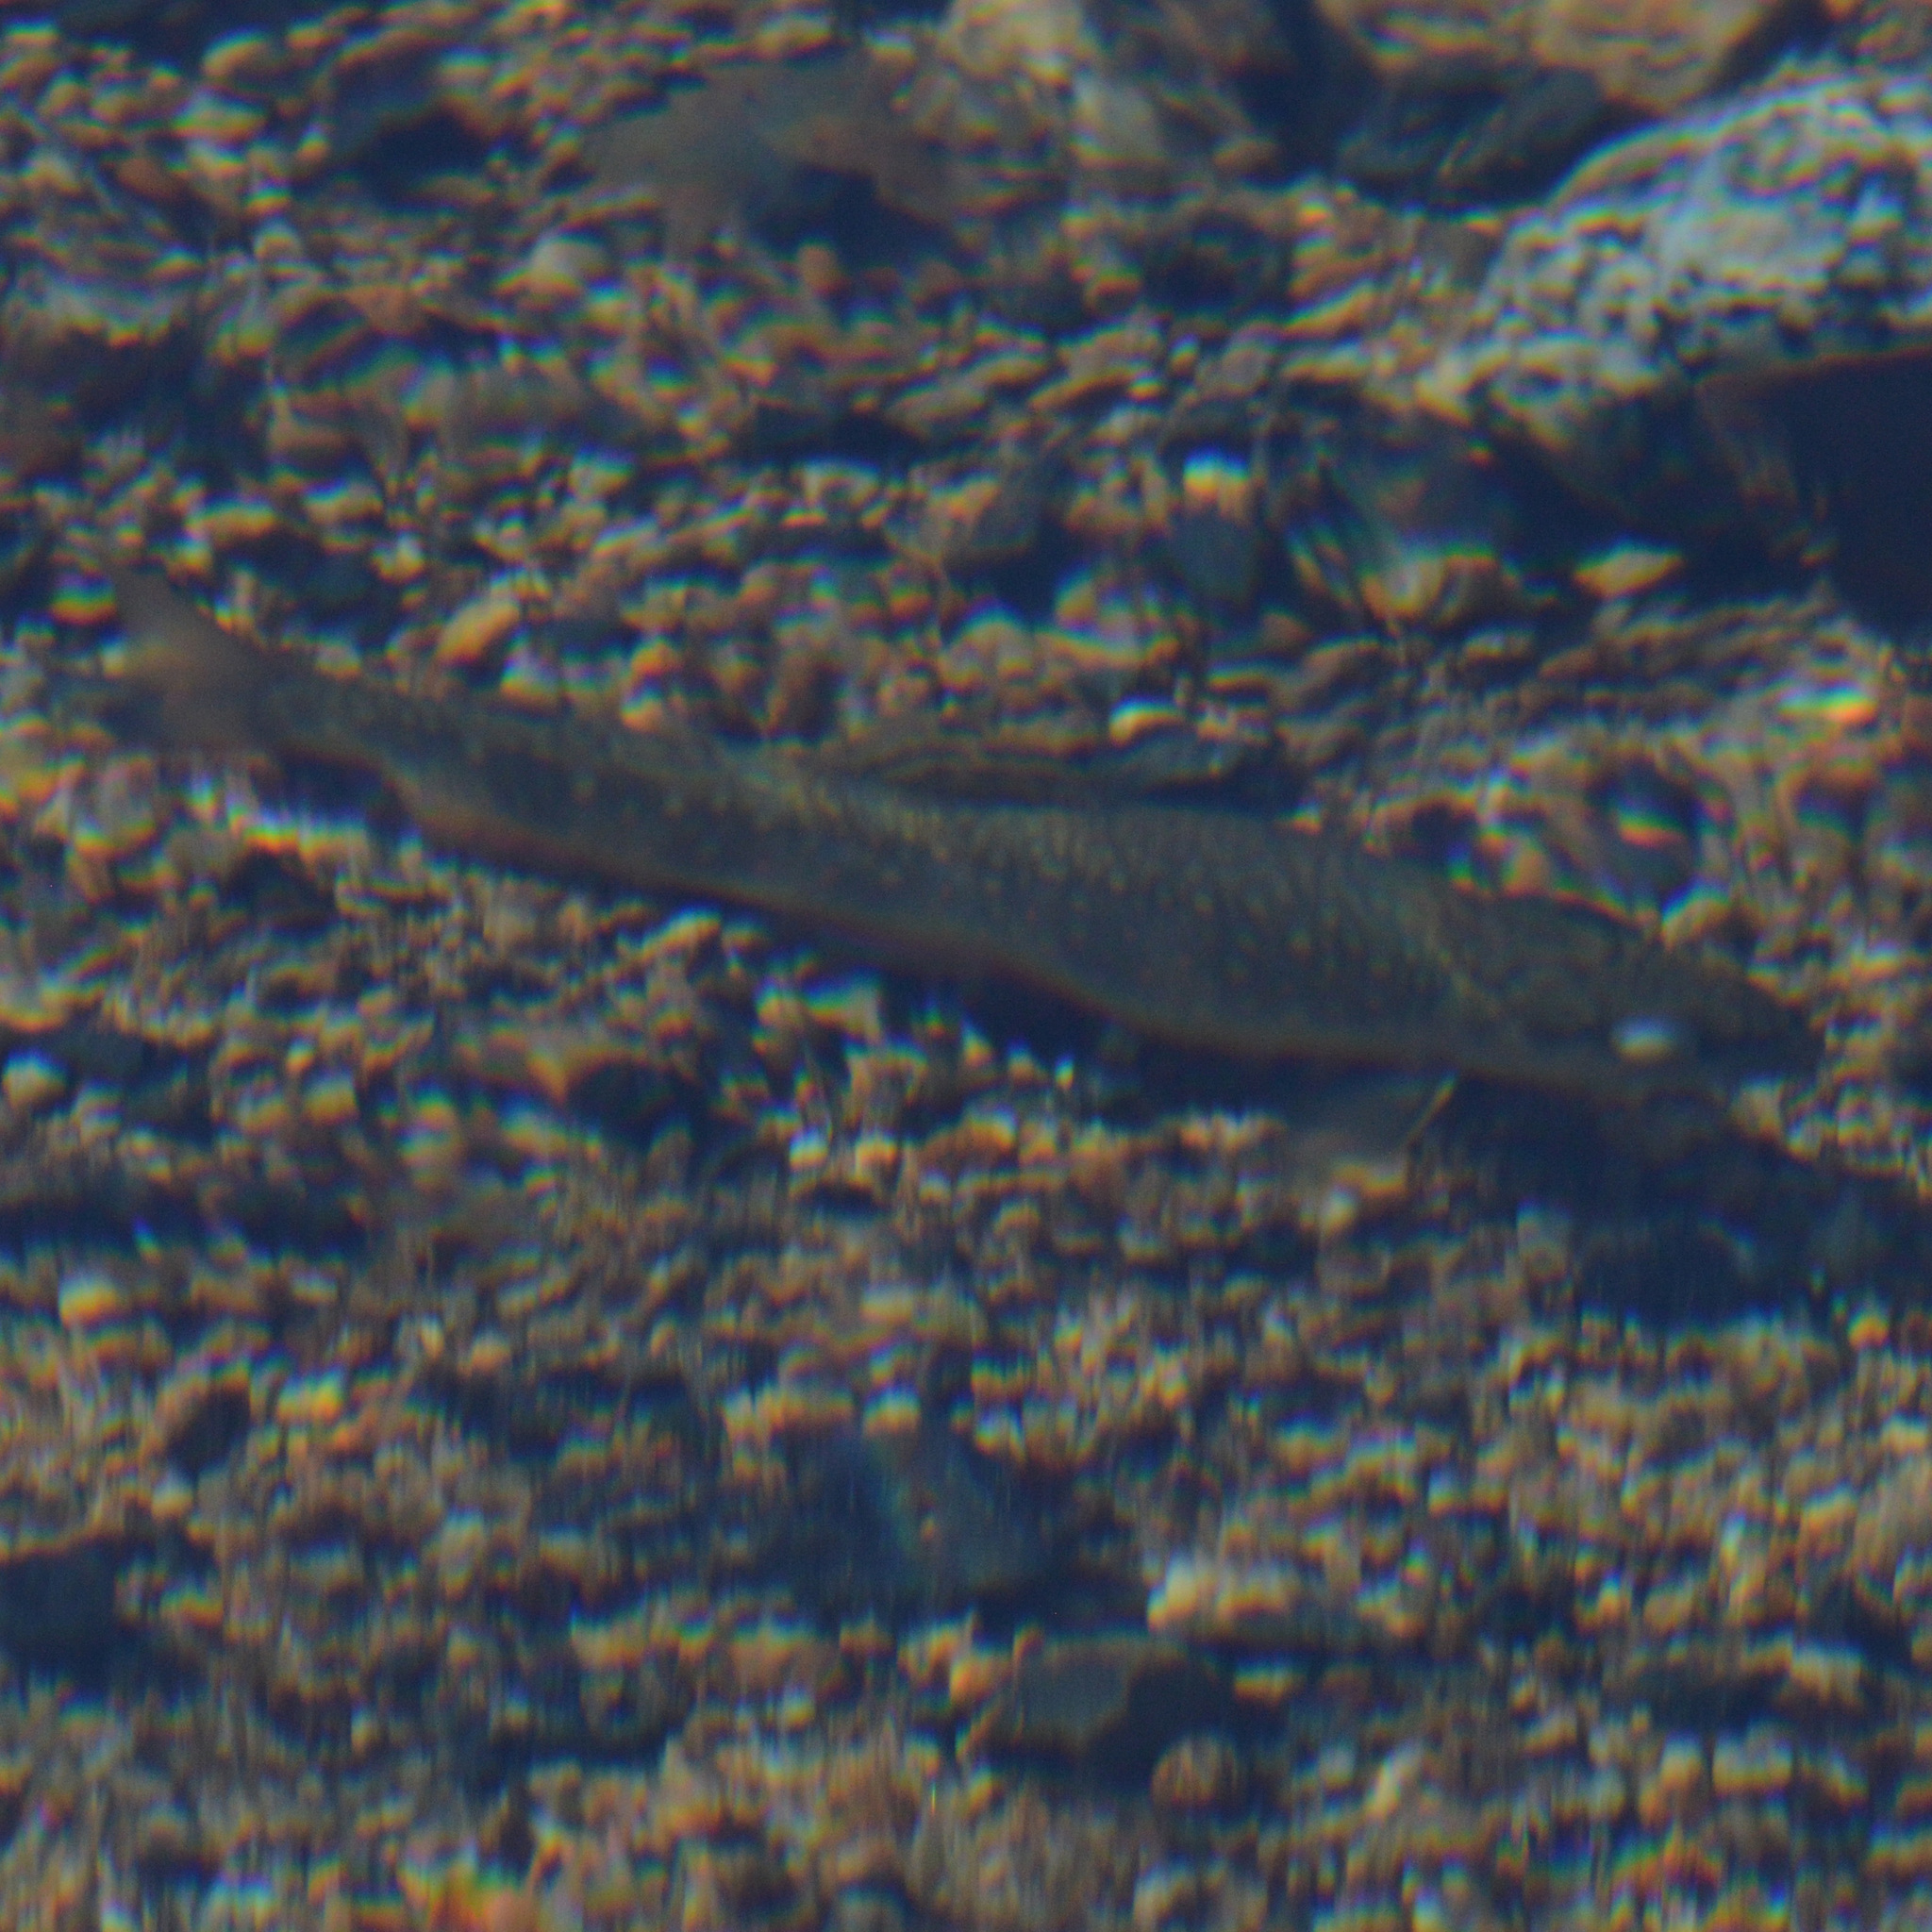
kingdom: Animalia
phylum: Chordata
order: Salmoniformes
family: Salmonidae
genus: Salvelinus
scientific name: Salvelinus fontinalis
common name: Brook trout
